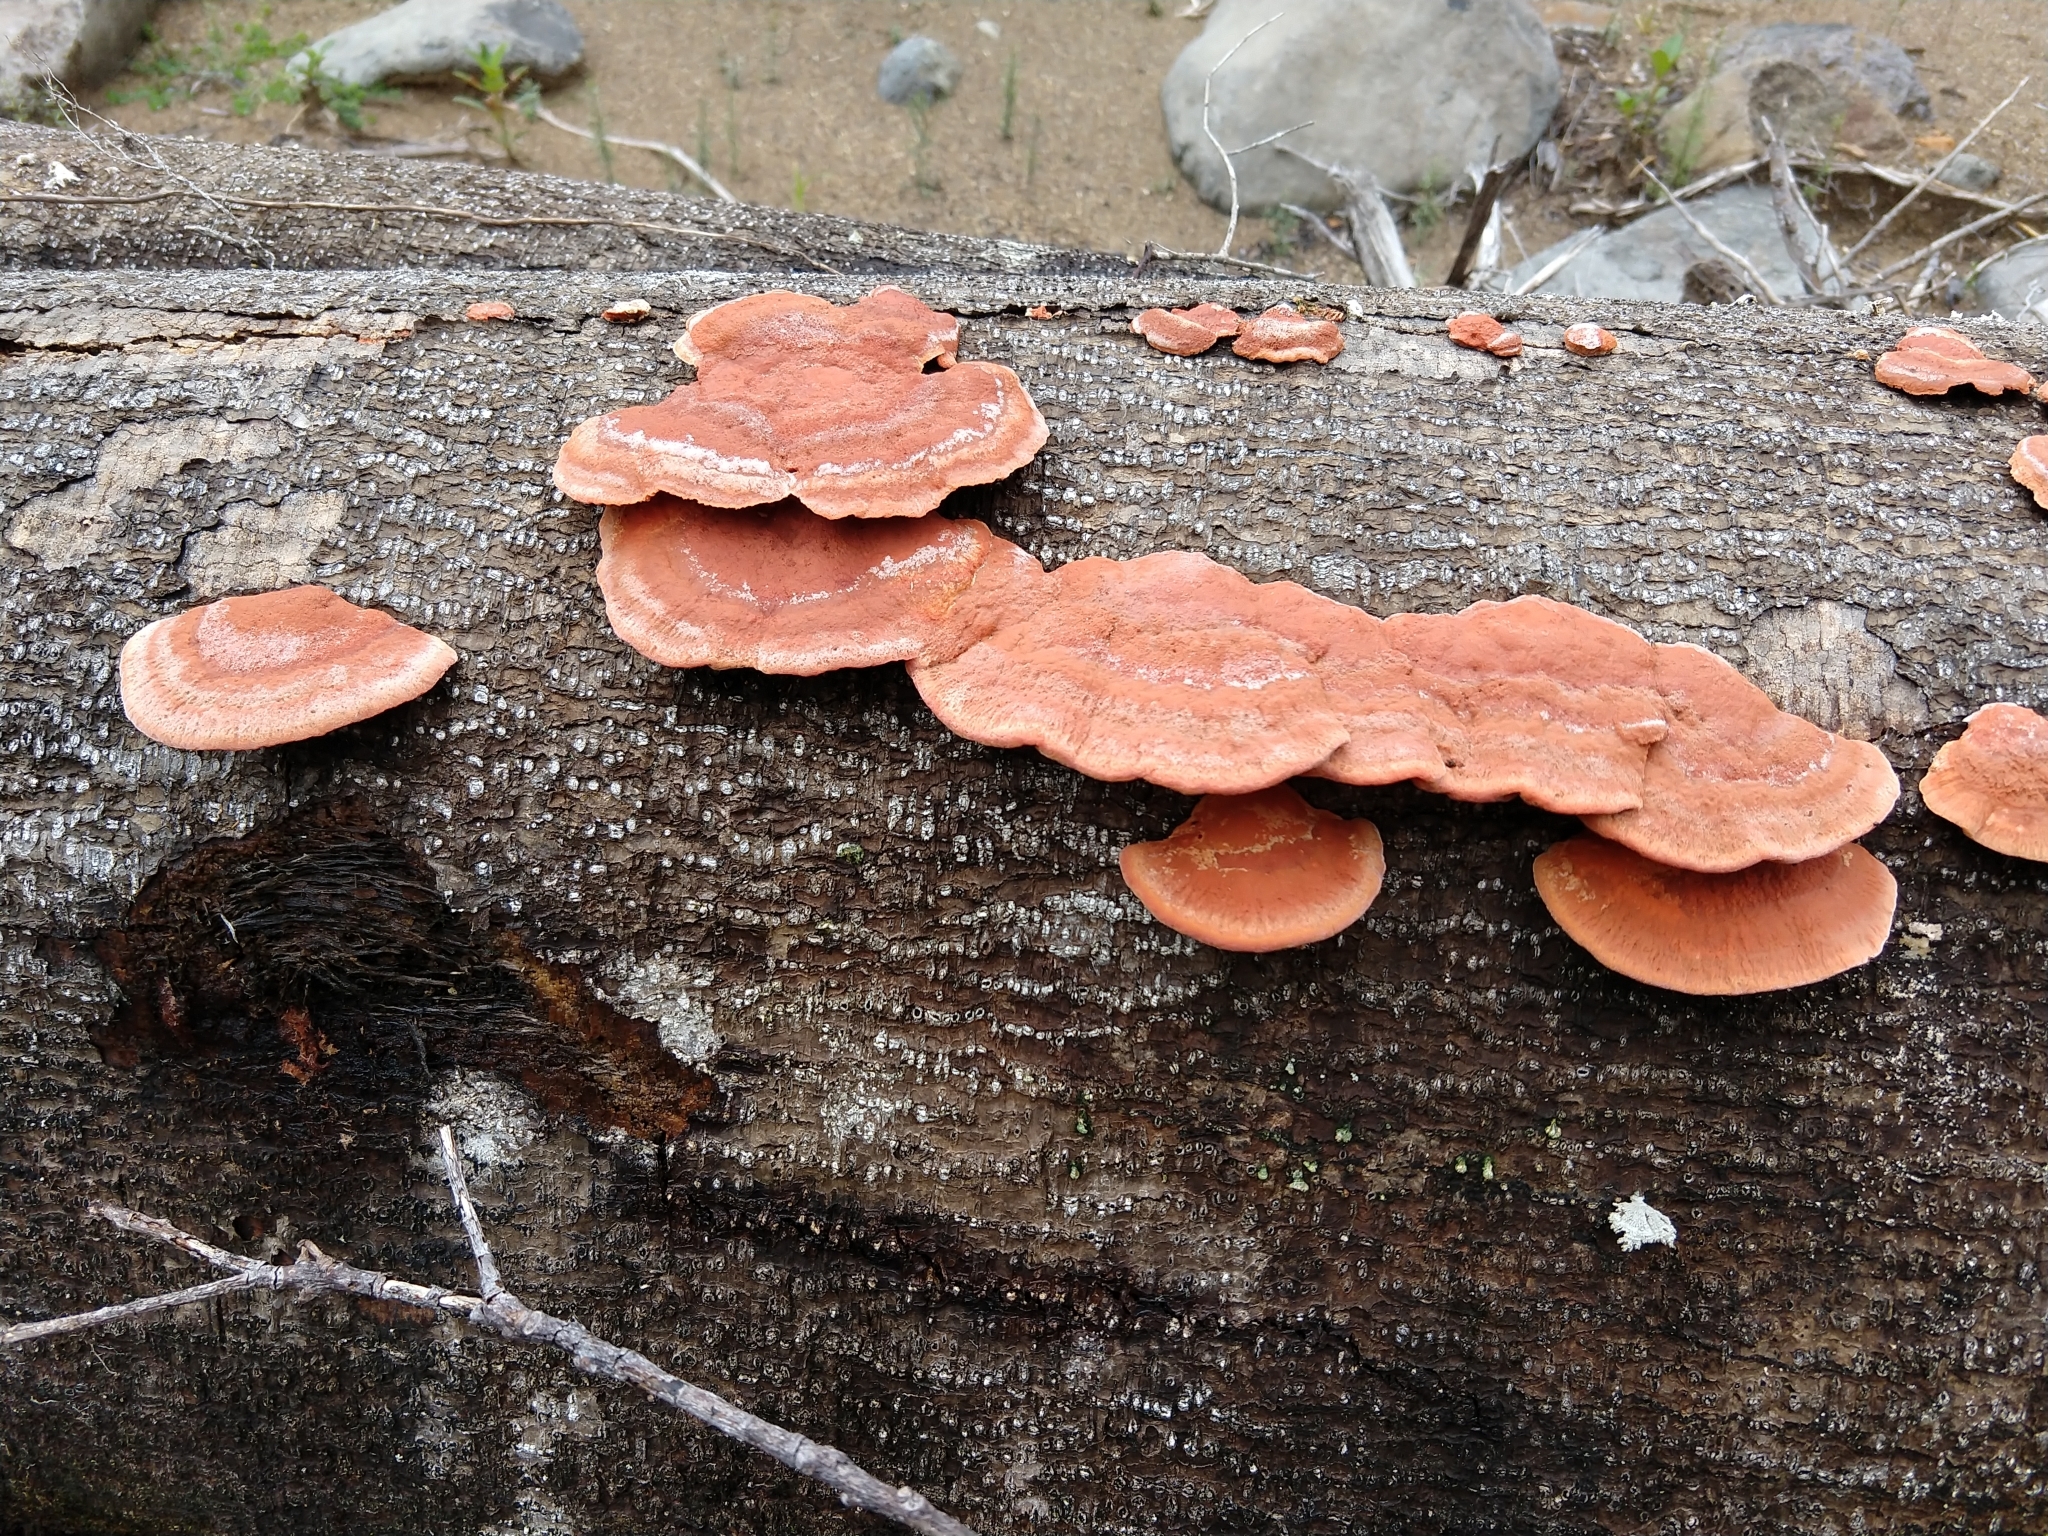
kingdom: Fungi
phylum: Basidiomycota
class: Agaricomycetes
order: Polyporales
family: Polyporaceae
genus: Trametes
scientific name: Trametes coccinea
